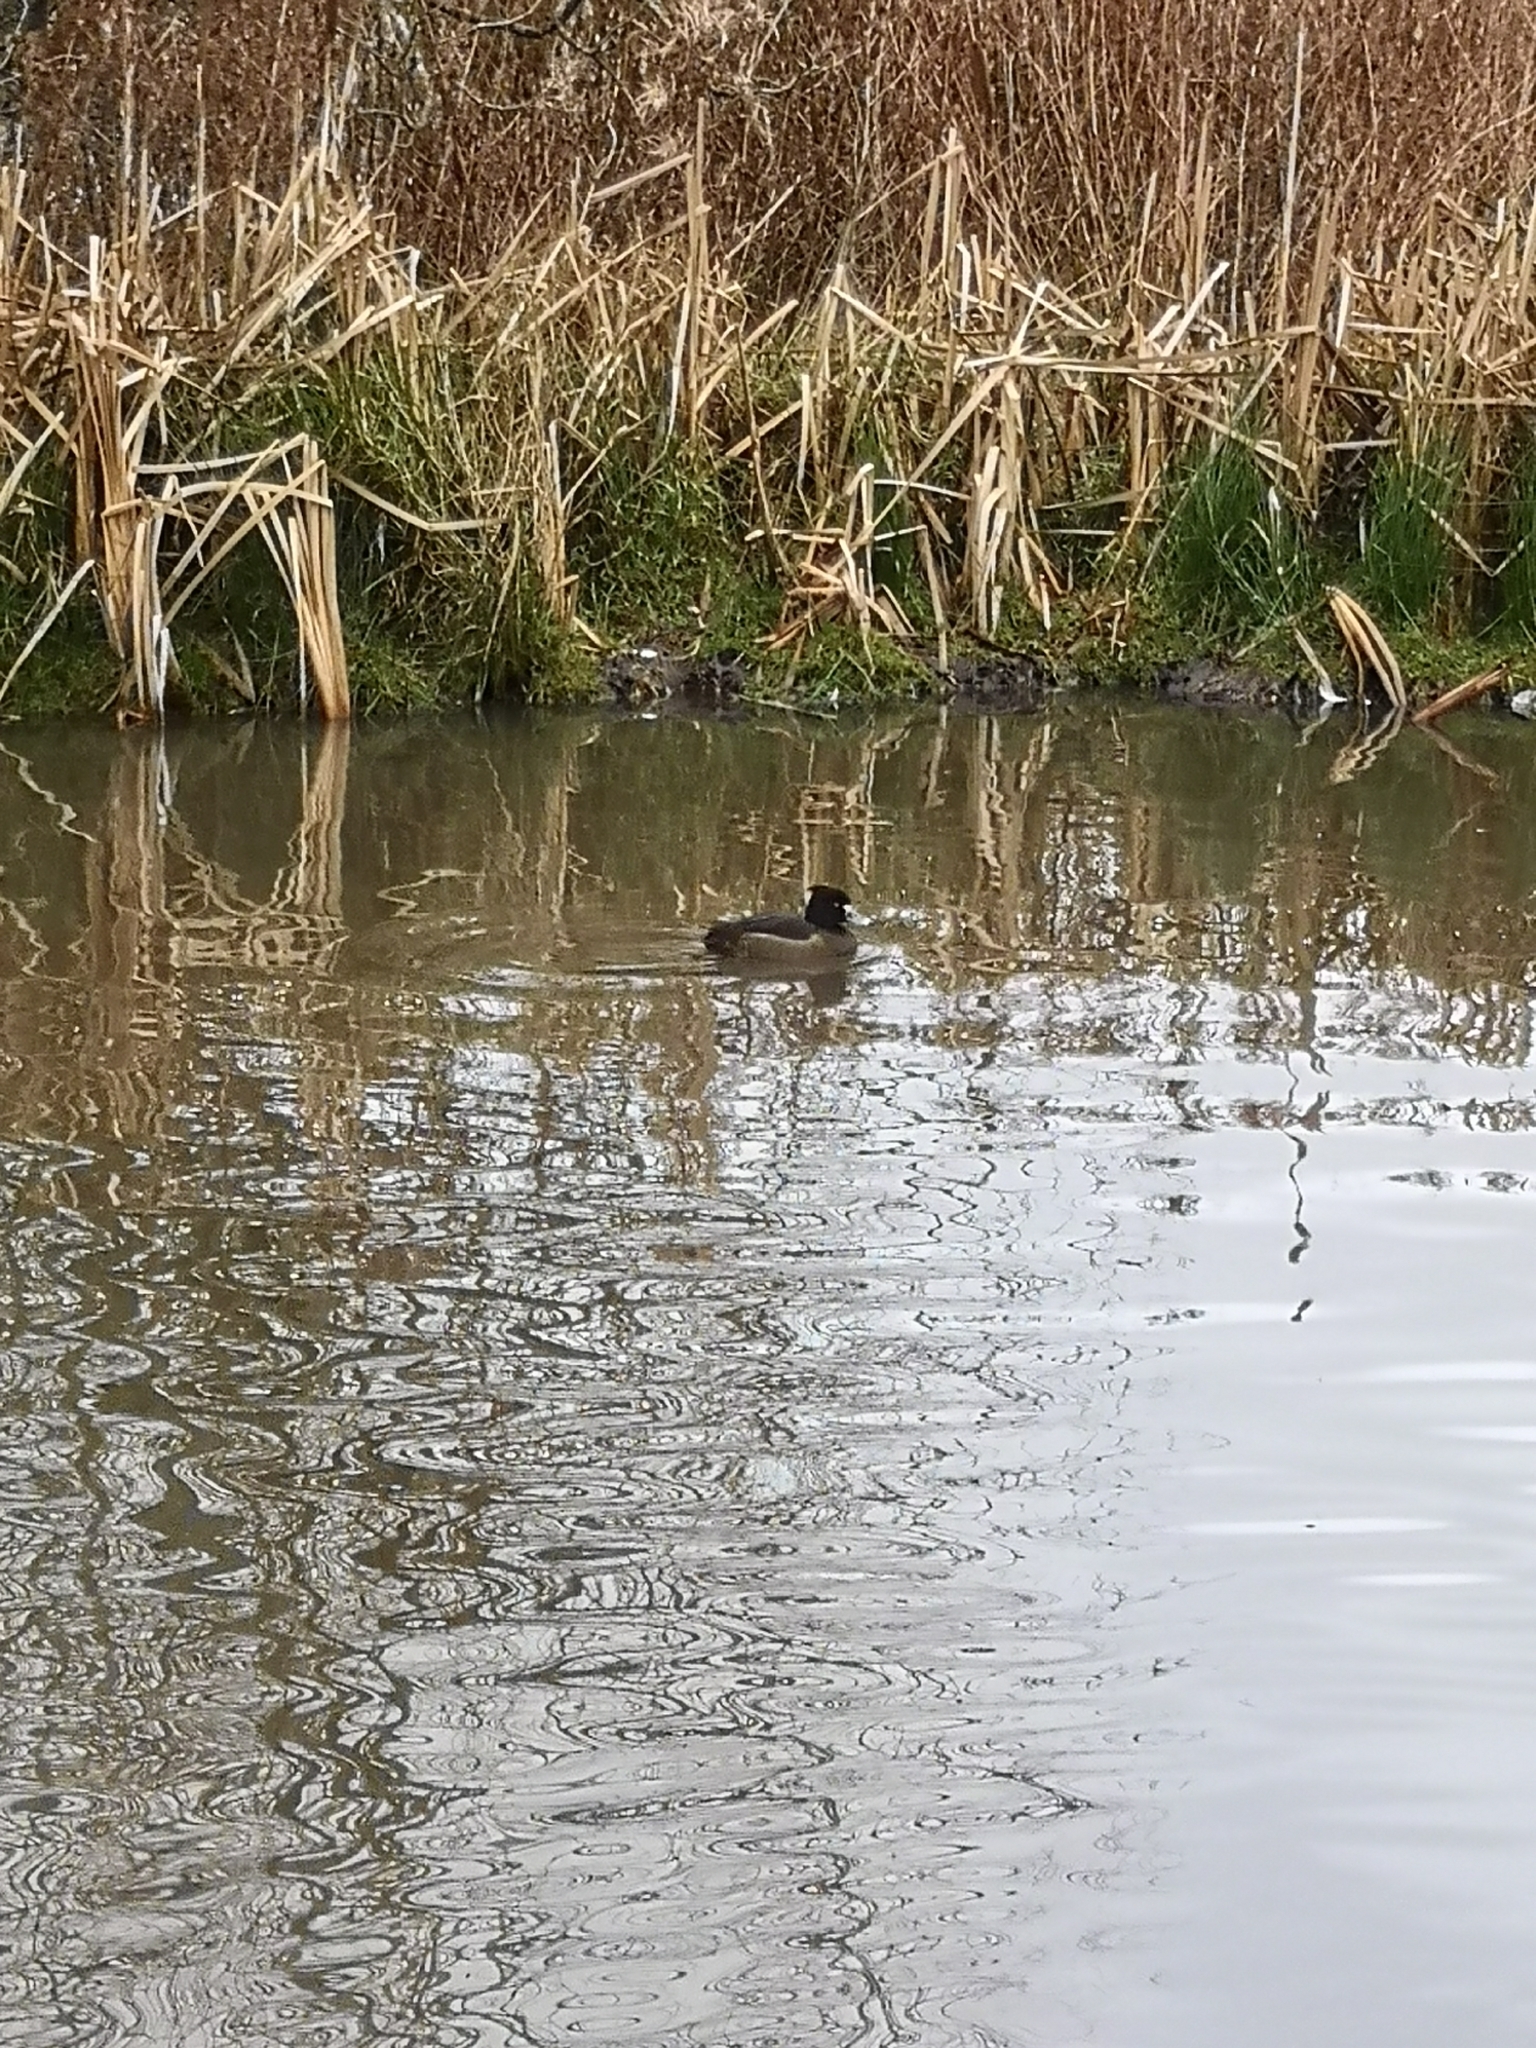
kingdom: Animalia
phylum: Chordata
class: Aves
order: Anseriformes
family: Anatidae
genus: Aythya
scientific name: Aythya fuligula
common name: Tufted duck
